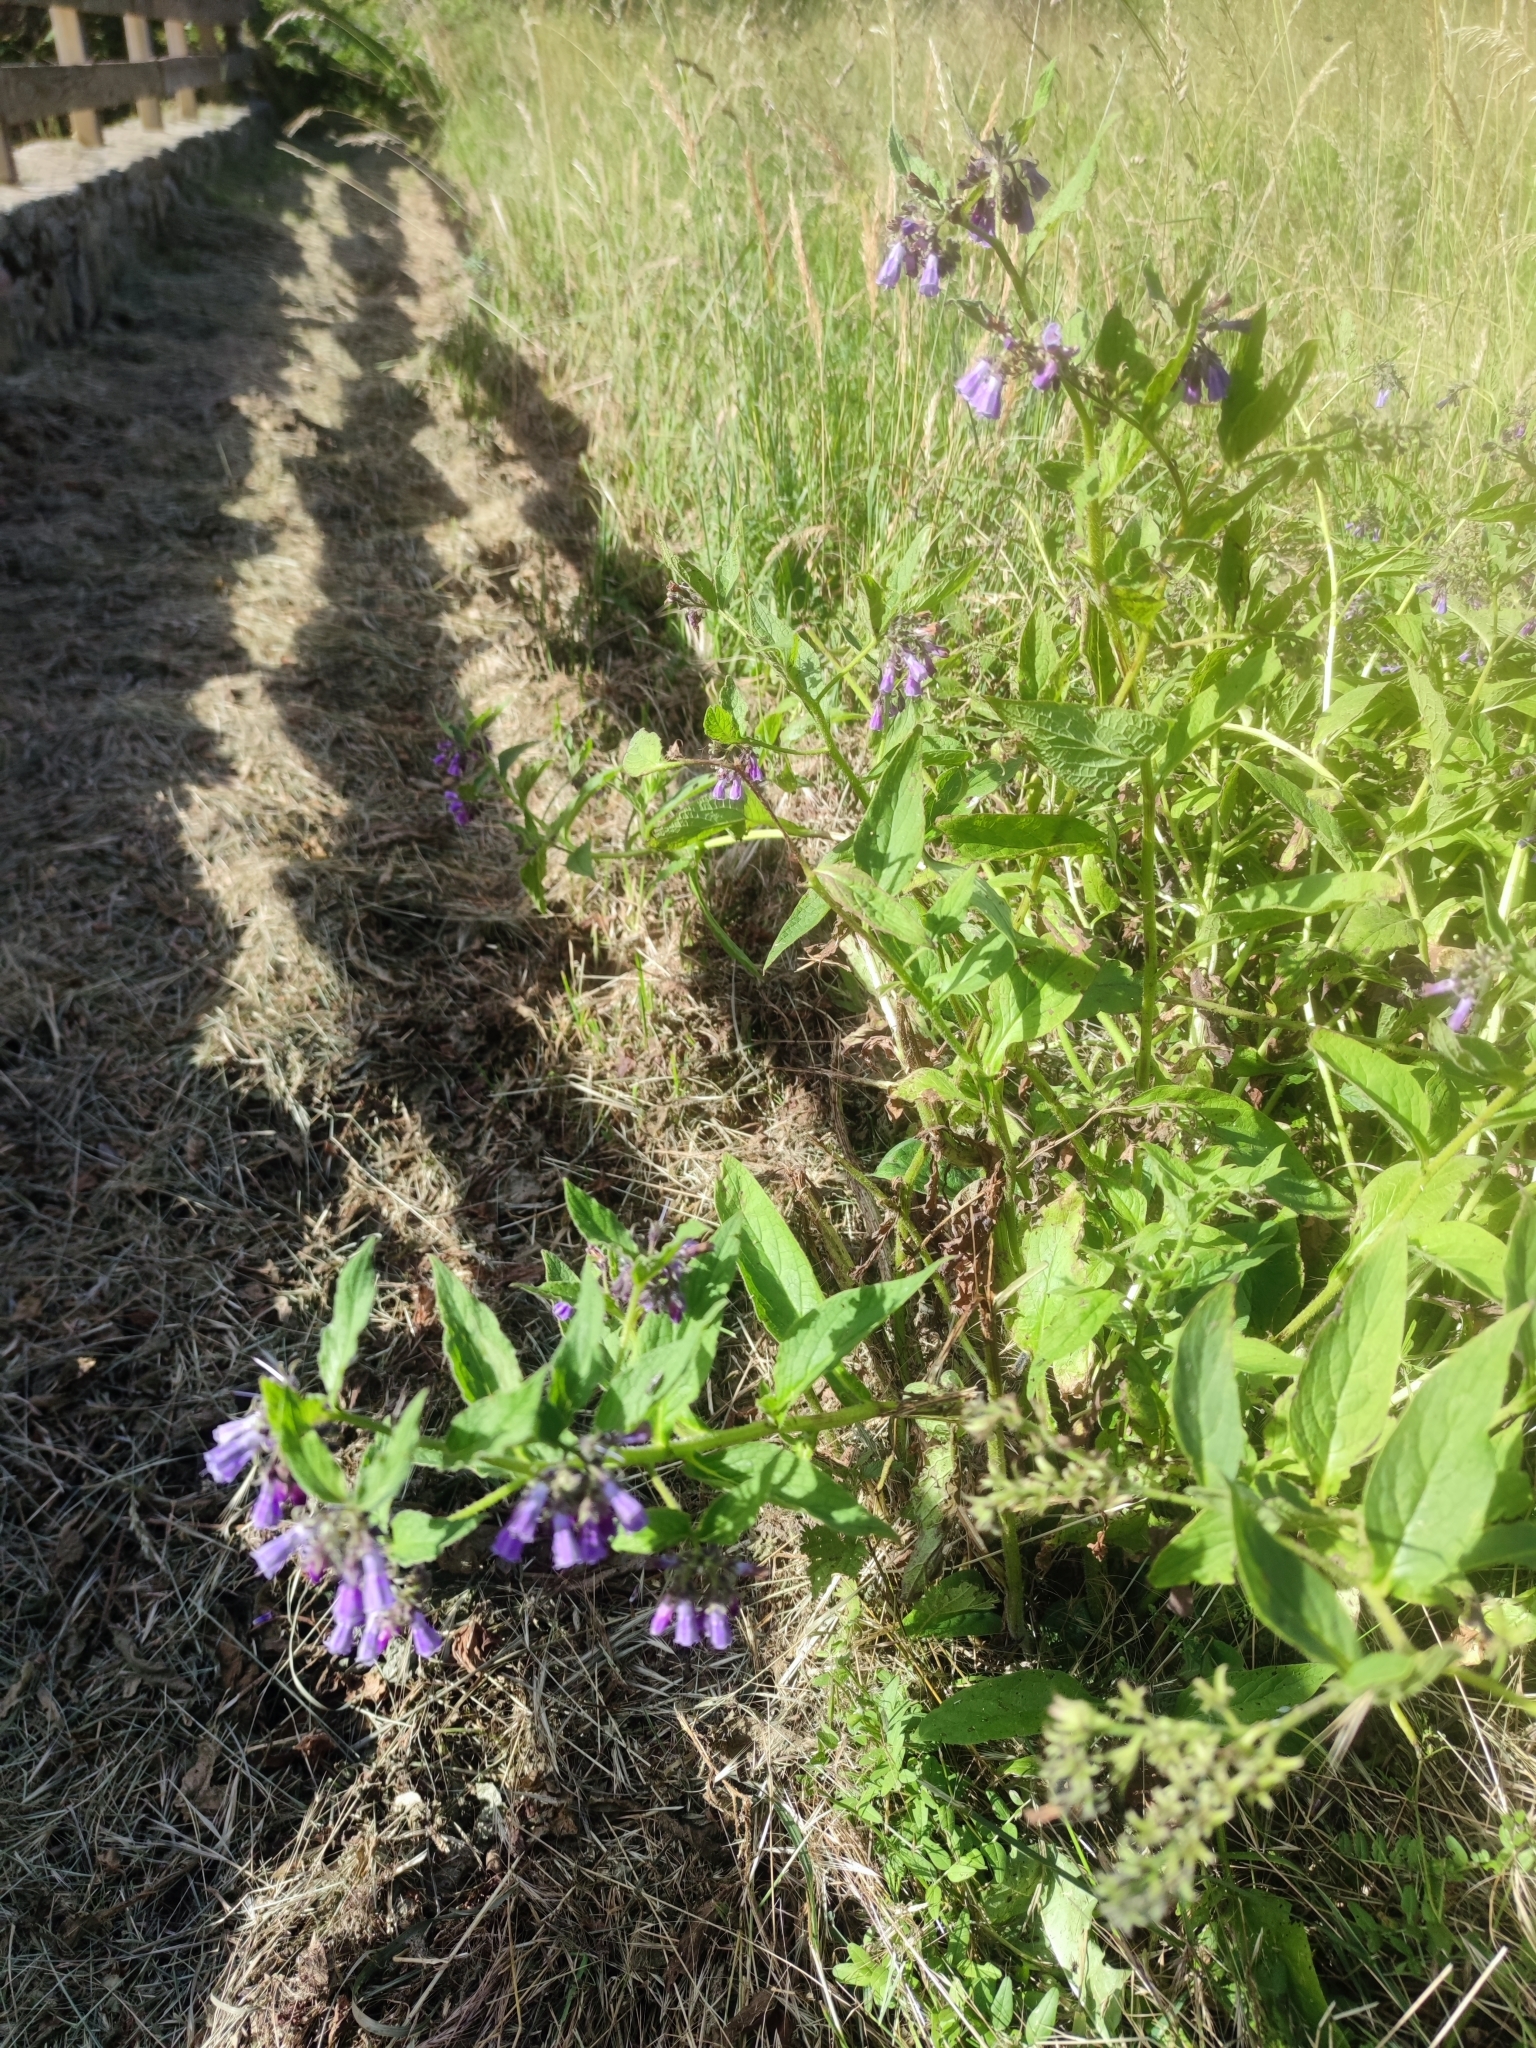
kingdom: Plantae
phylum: Tracheophyta
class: Magnoliopsida
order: Boraginales
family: Boraginaceae
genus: Symphytum
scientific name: Symphytum officinale
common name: Common comfrey
